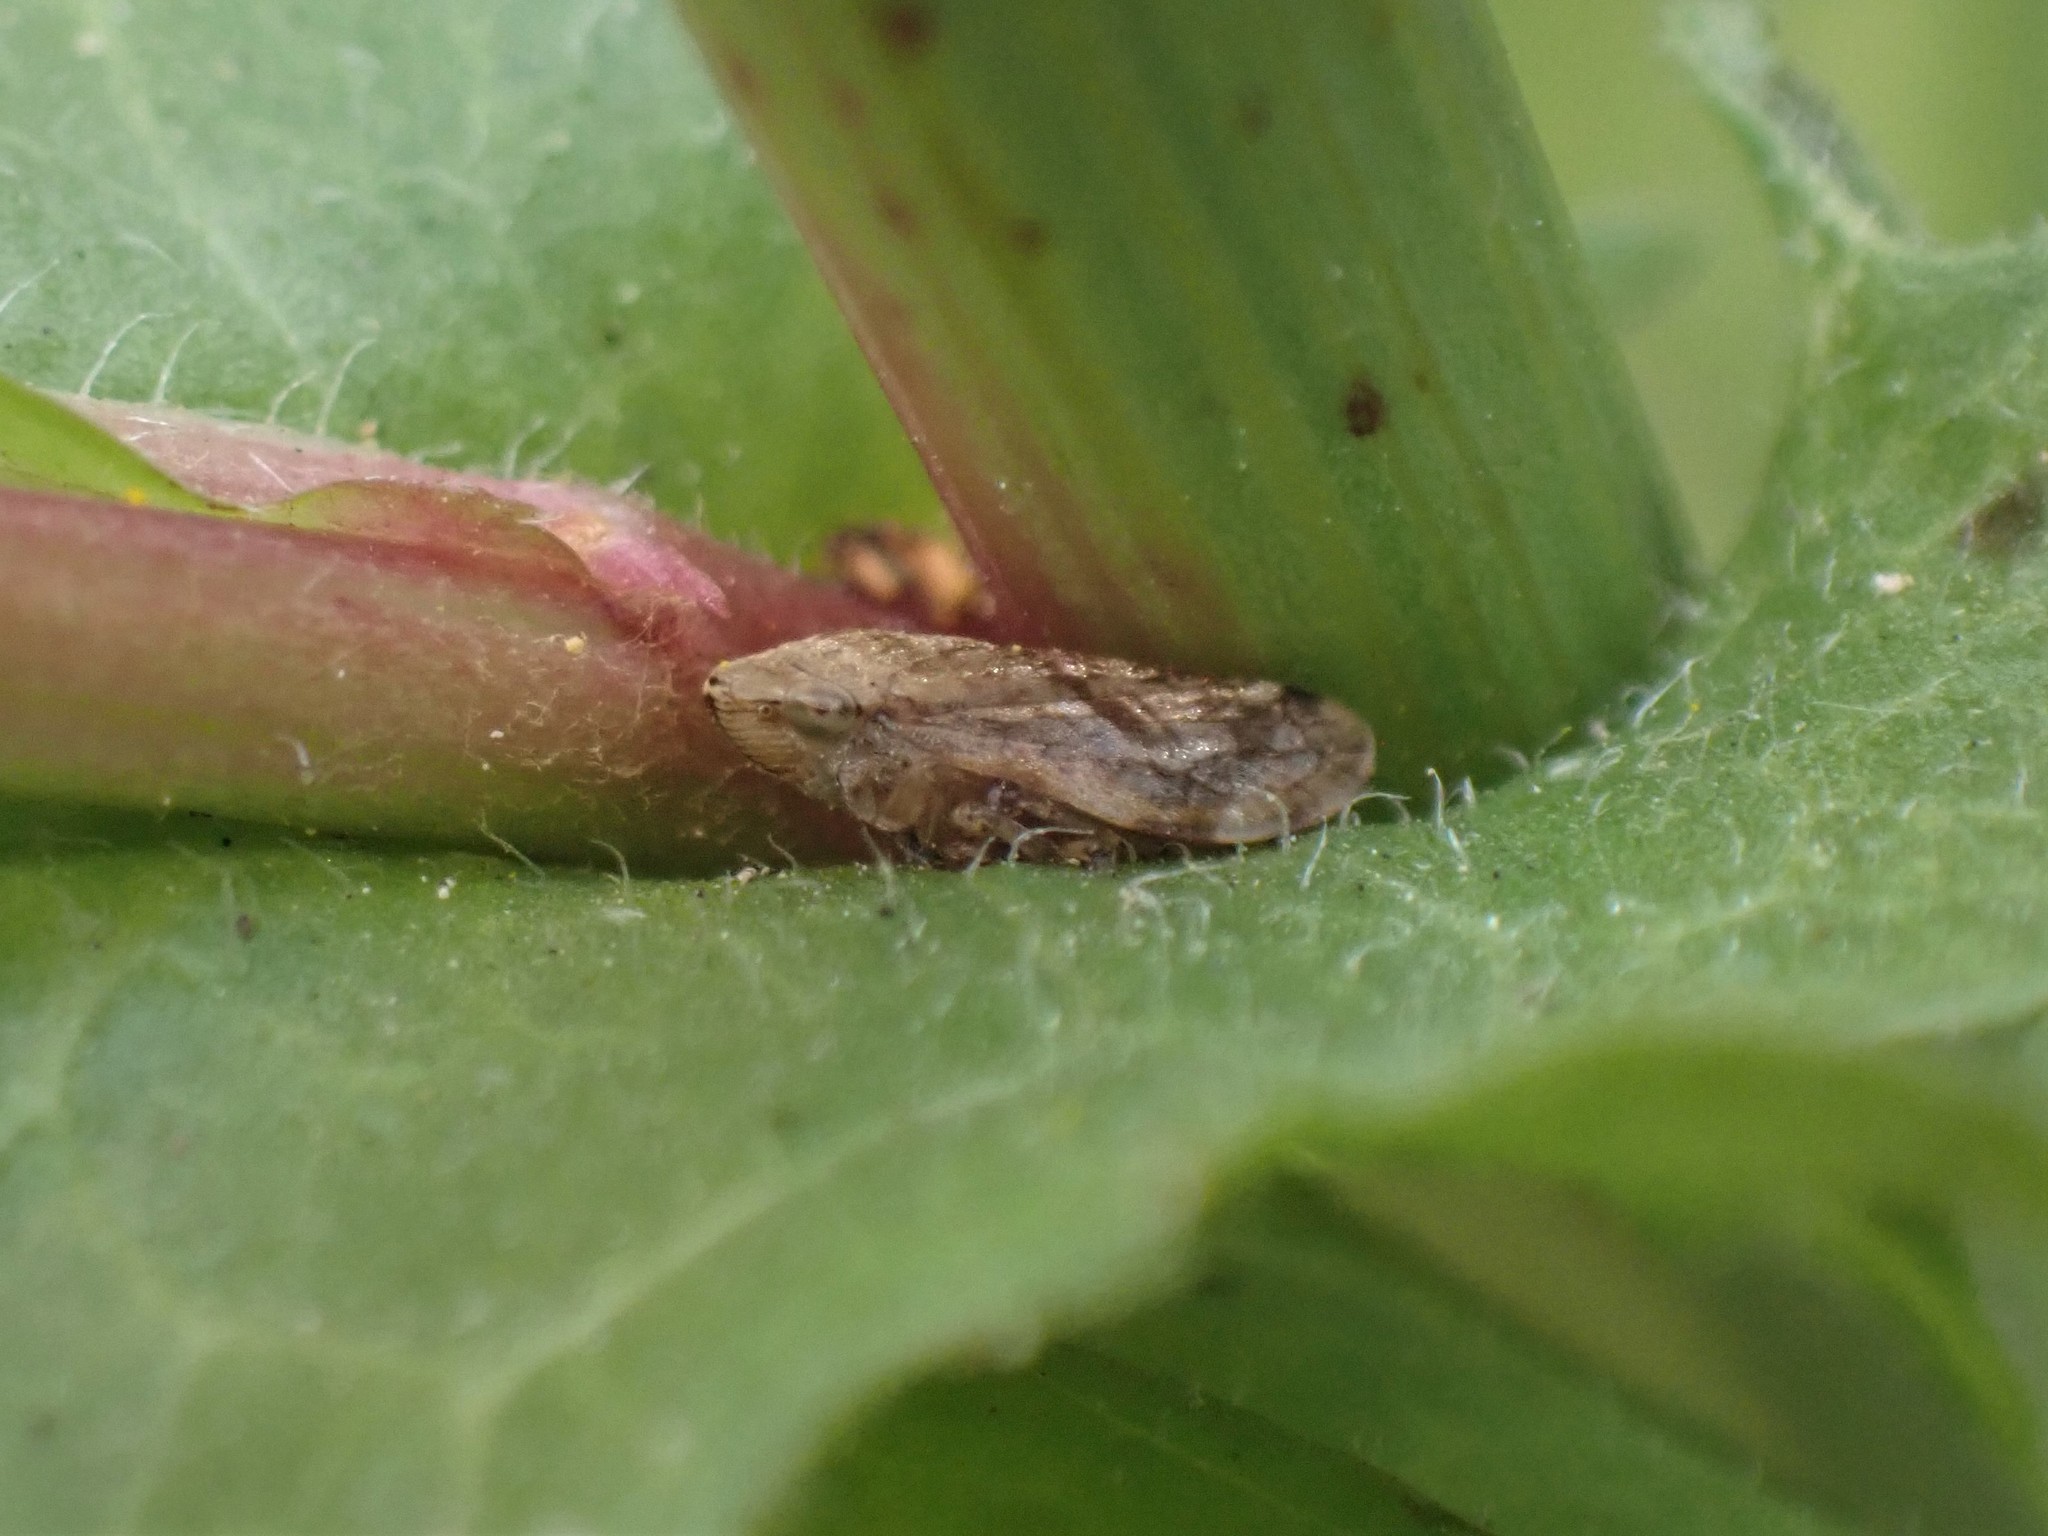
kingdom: Animalia
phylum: Arthropoda
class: Insecta
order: Hemiptera
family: Aphrophoridae
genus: Philaenus
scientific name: Philaenus spumarius
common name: Meadow spittlebug
